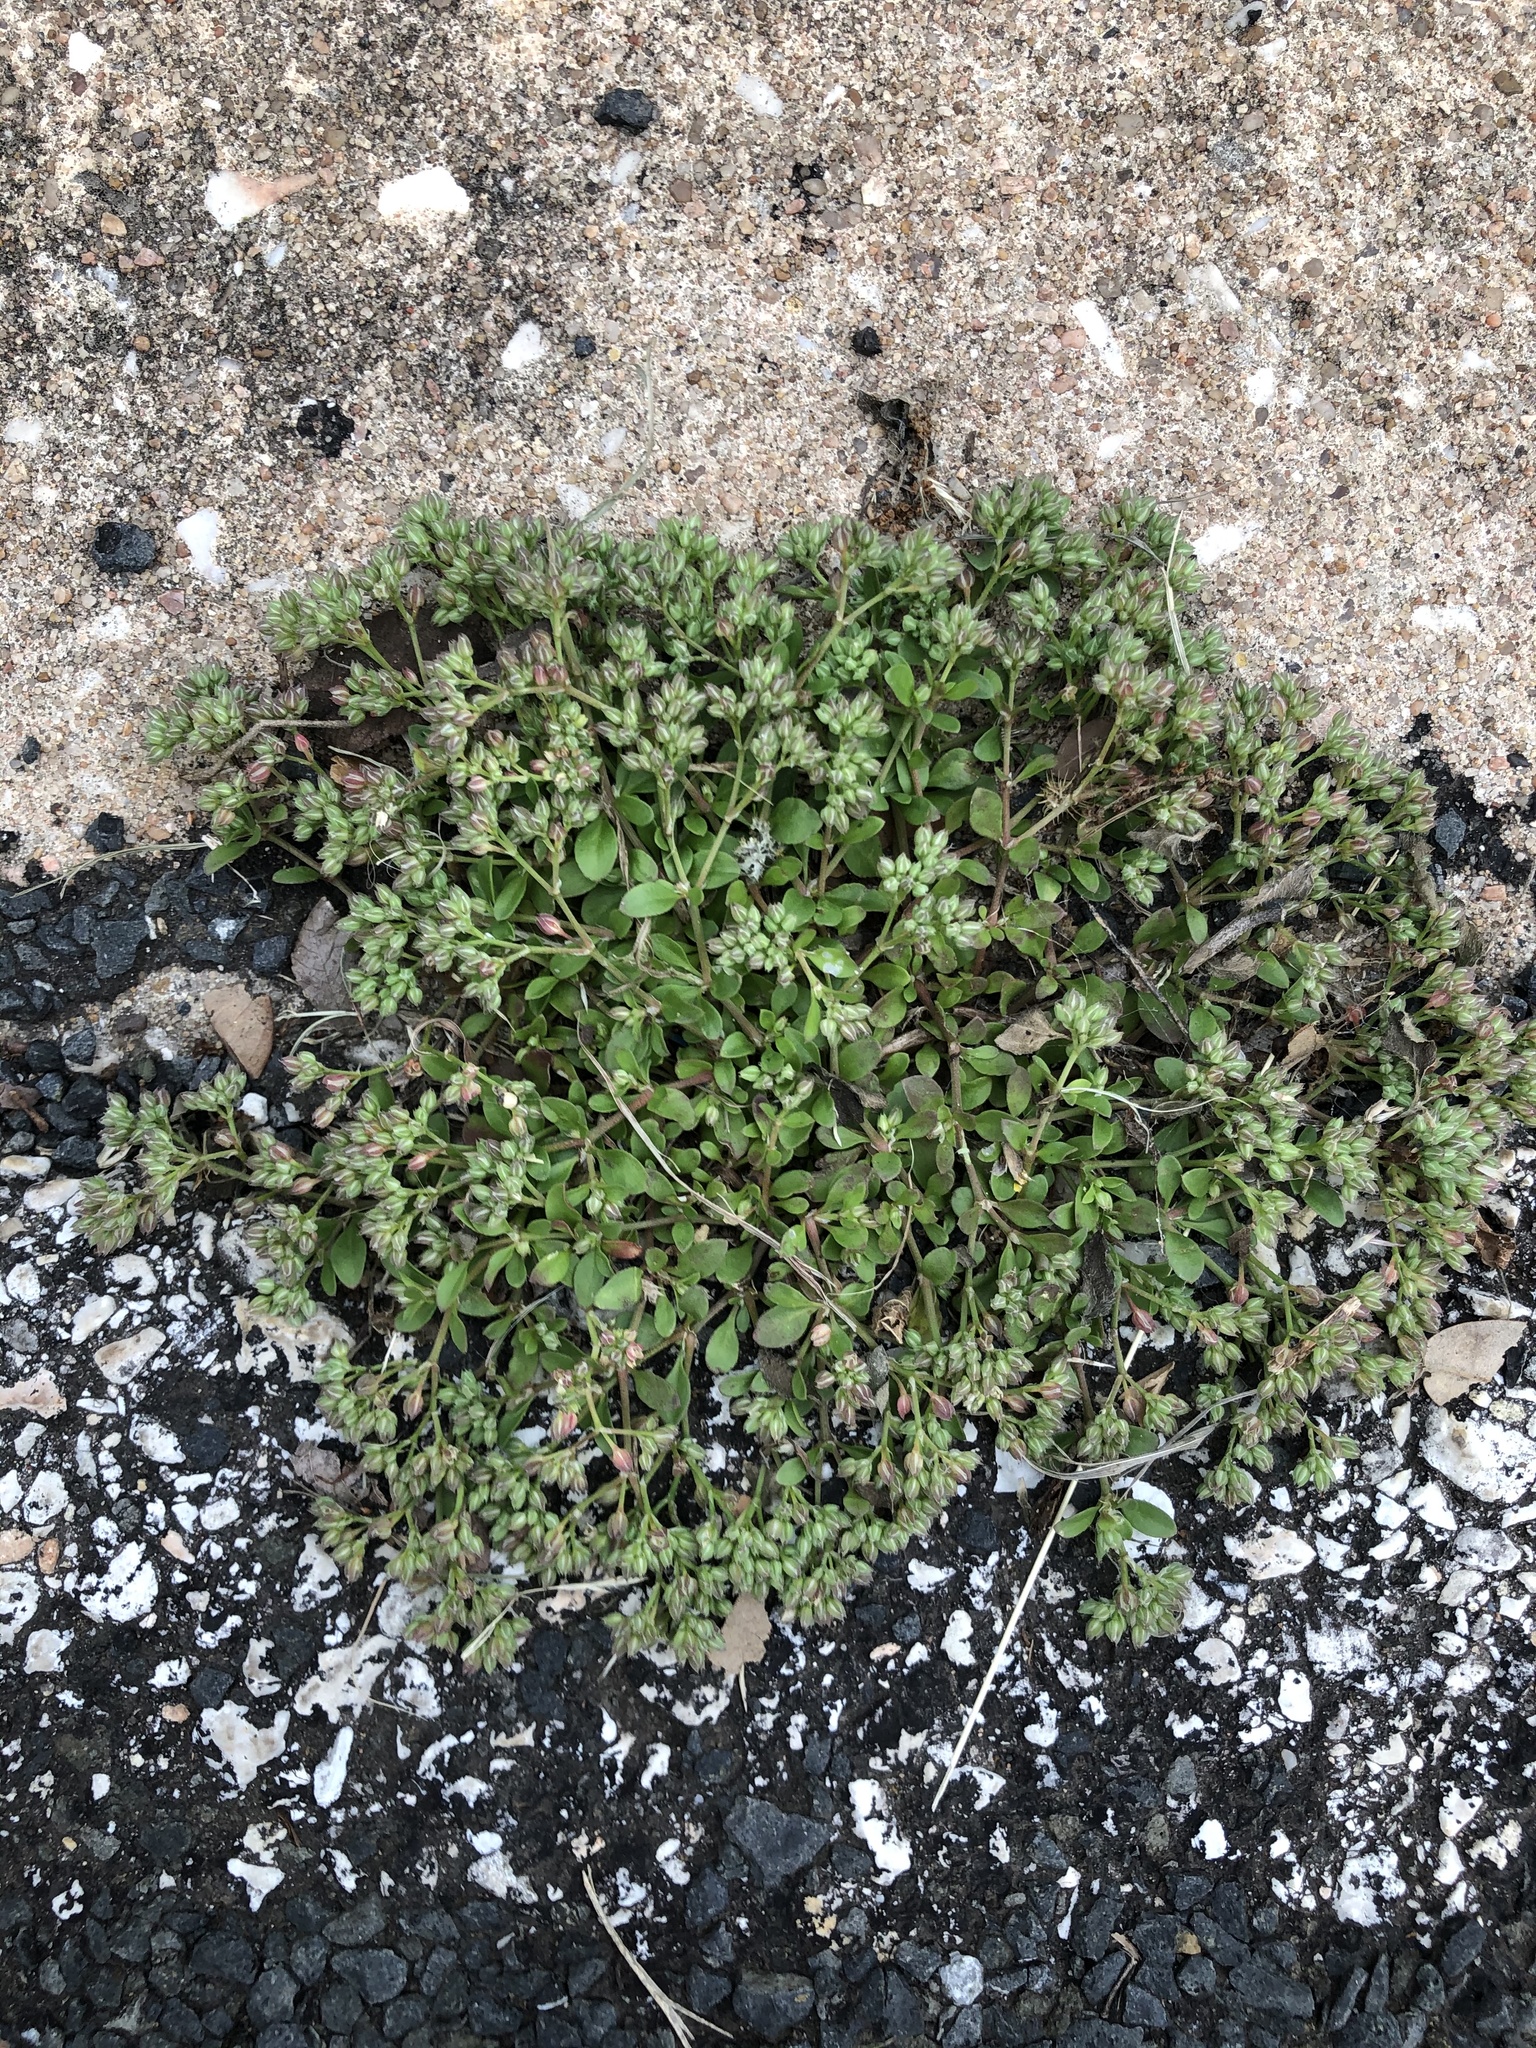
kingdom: Plantae
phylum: Tracheophyta
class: Magnoliopsida
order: Caryophyllales
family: Caryophyllaceae
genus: Polycarpon
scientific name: Polycarpon tetraphyllum
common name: Four-leaved all-seed
